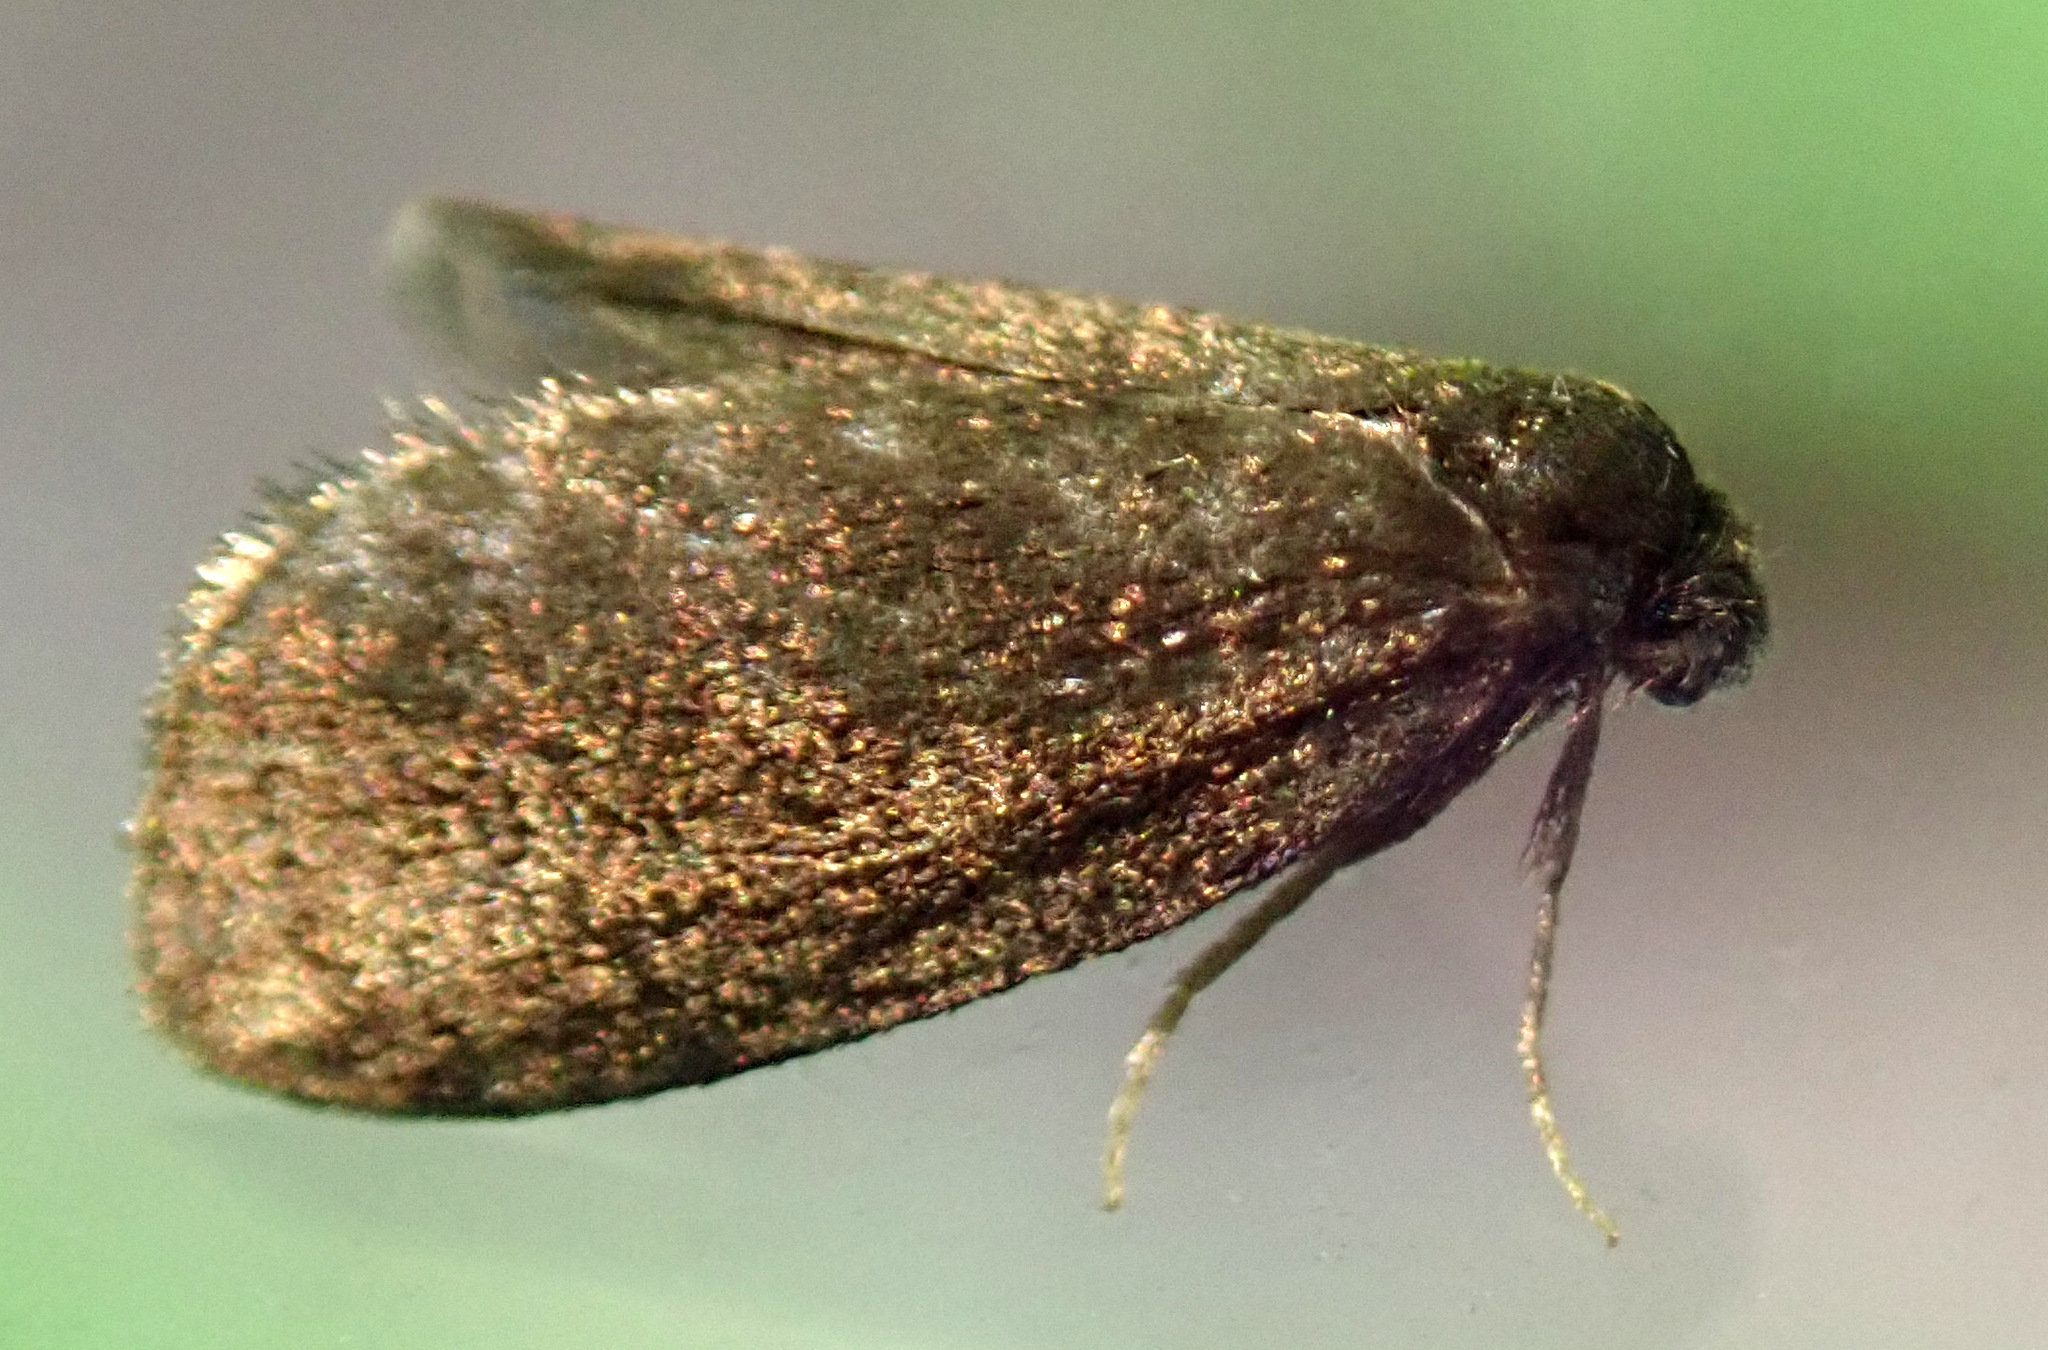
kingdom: Animalia
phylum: Arthropoda
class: Insecta
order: Lepidoptera
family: Psychidae
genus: Psyche
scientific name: Psyche casta
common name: Common sweep
